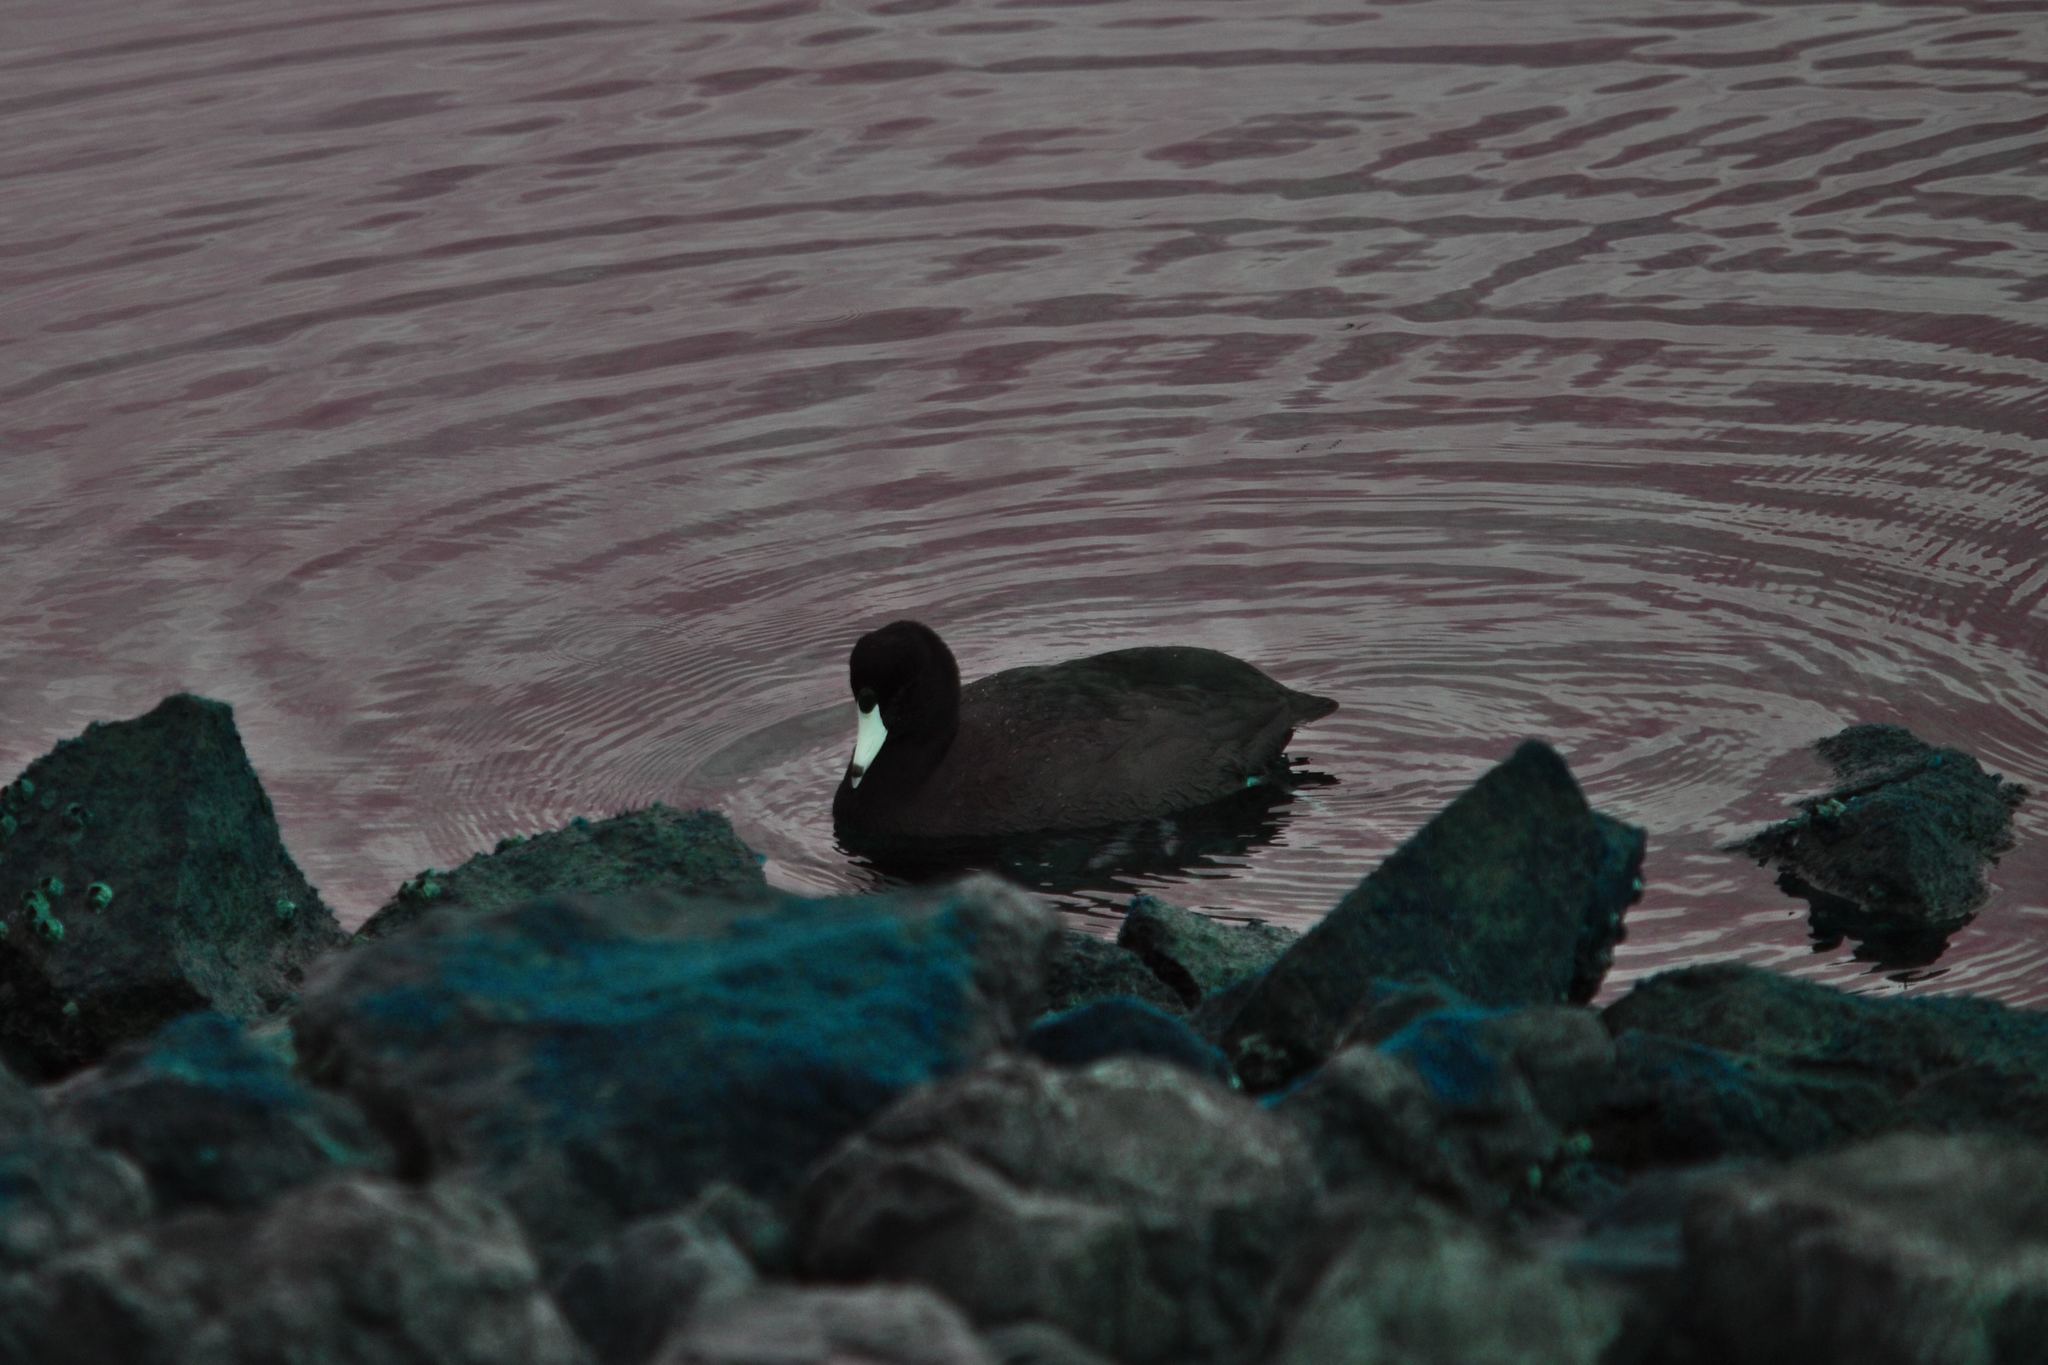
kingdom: Animalia
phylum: Chordata
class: Aves
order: Gruiformes
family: Rallidae
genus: Fulica
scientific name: Fulica americana
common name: American coot
